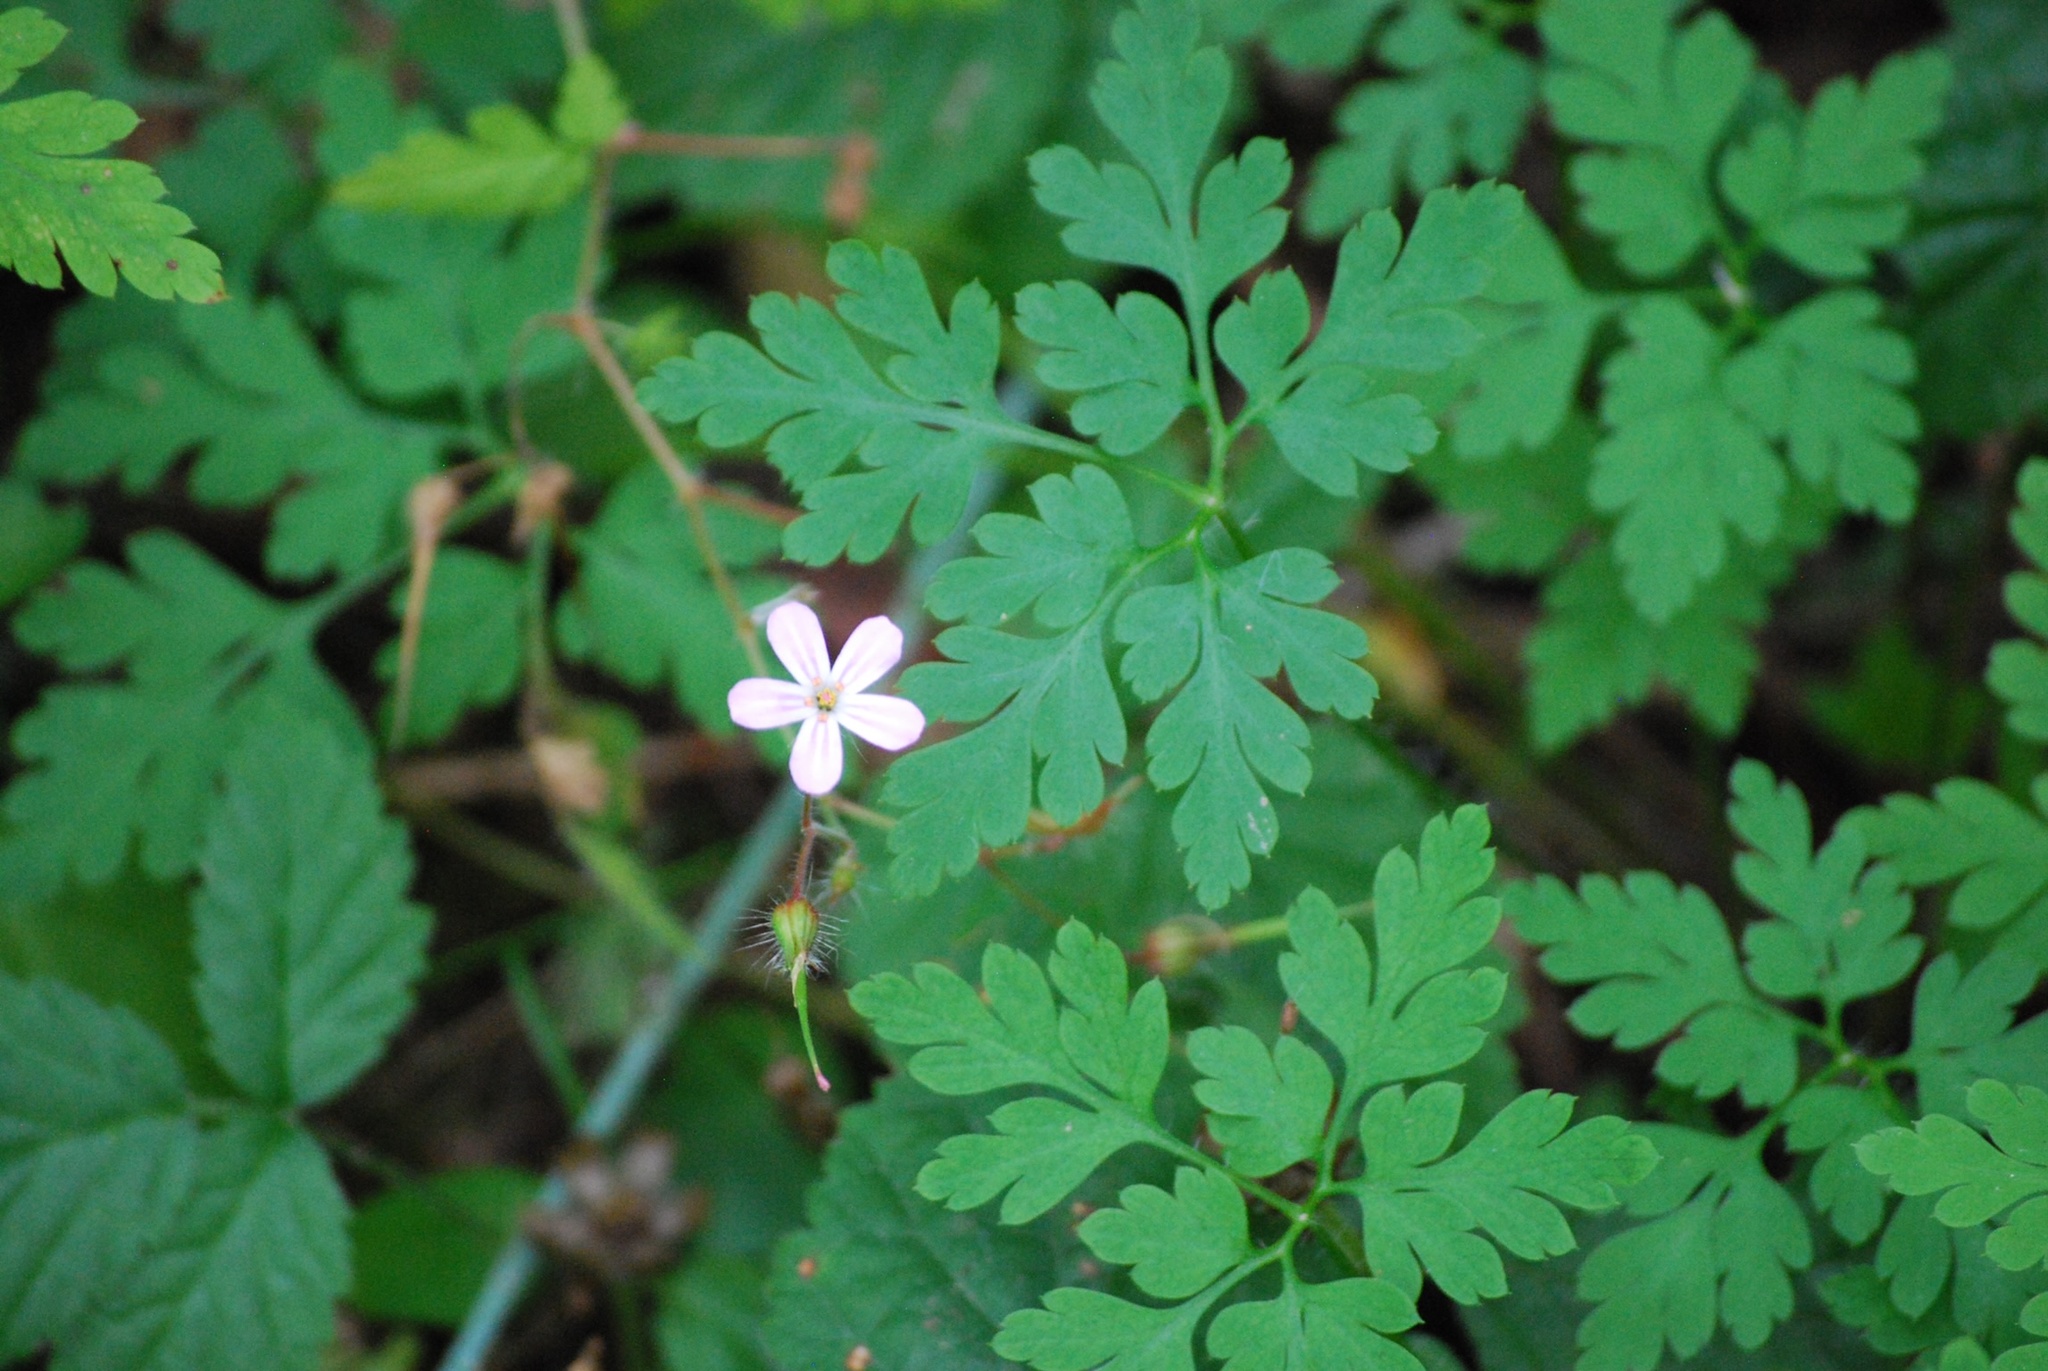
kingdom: Plantae
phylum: Tracheophyta
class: Magnoliopsida
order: Geraniales
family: Geraniaceae
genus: Geranium
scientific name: Geranium robertianum
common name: Herb-robert
